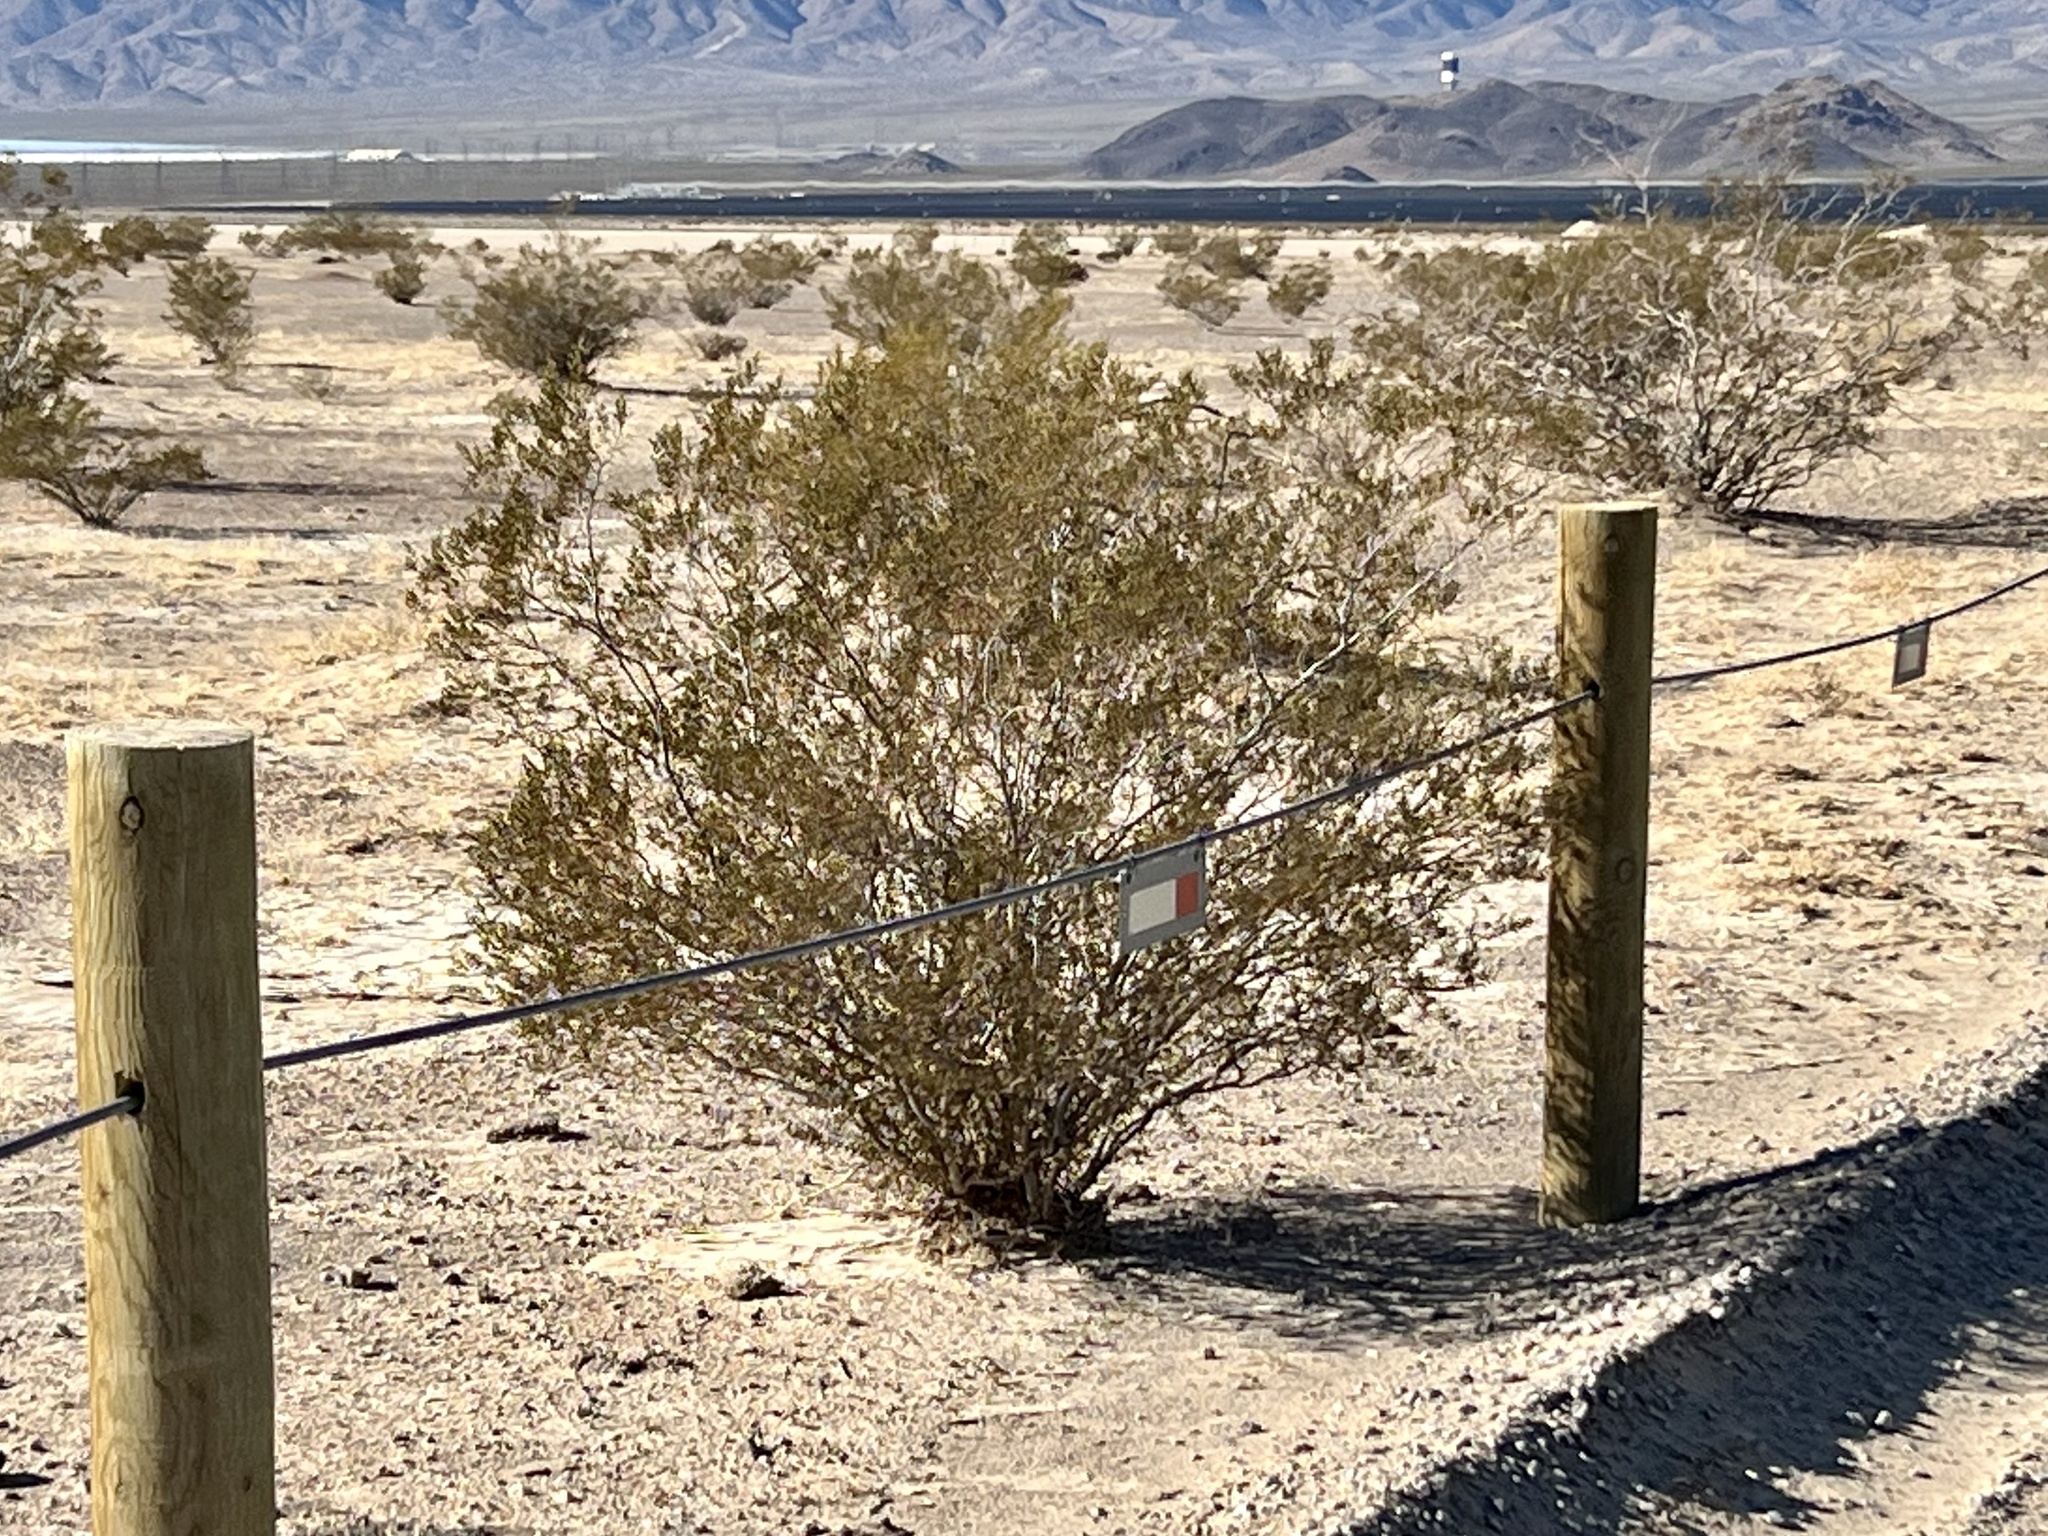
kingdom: Plantae
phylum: Tracheophyta
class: Magnoliopsida
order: Zygophyllales
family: Zygophyllaceae
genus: Larrea
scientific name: Larrea tridentata
